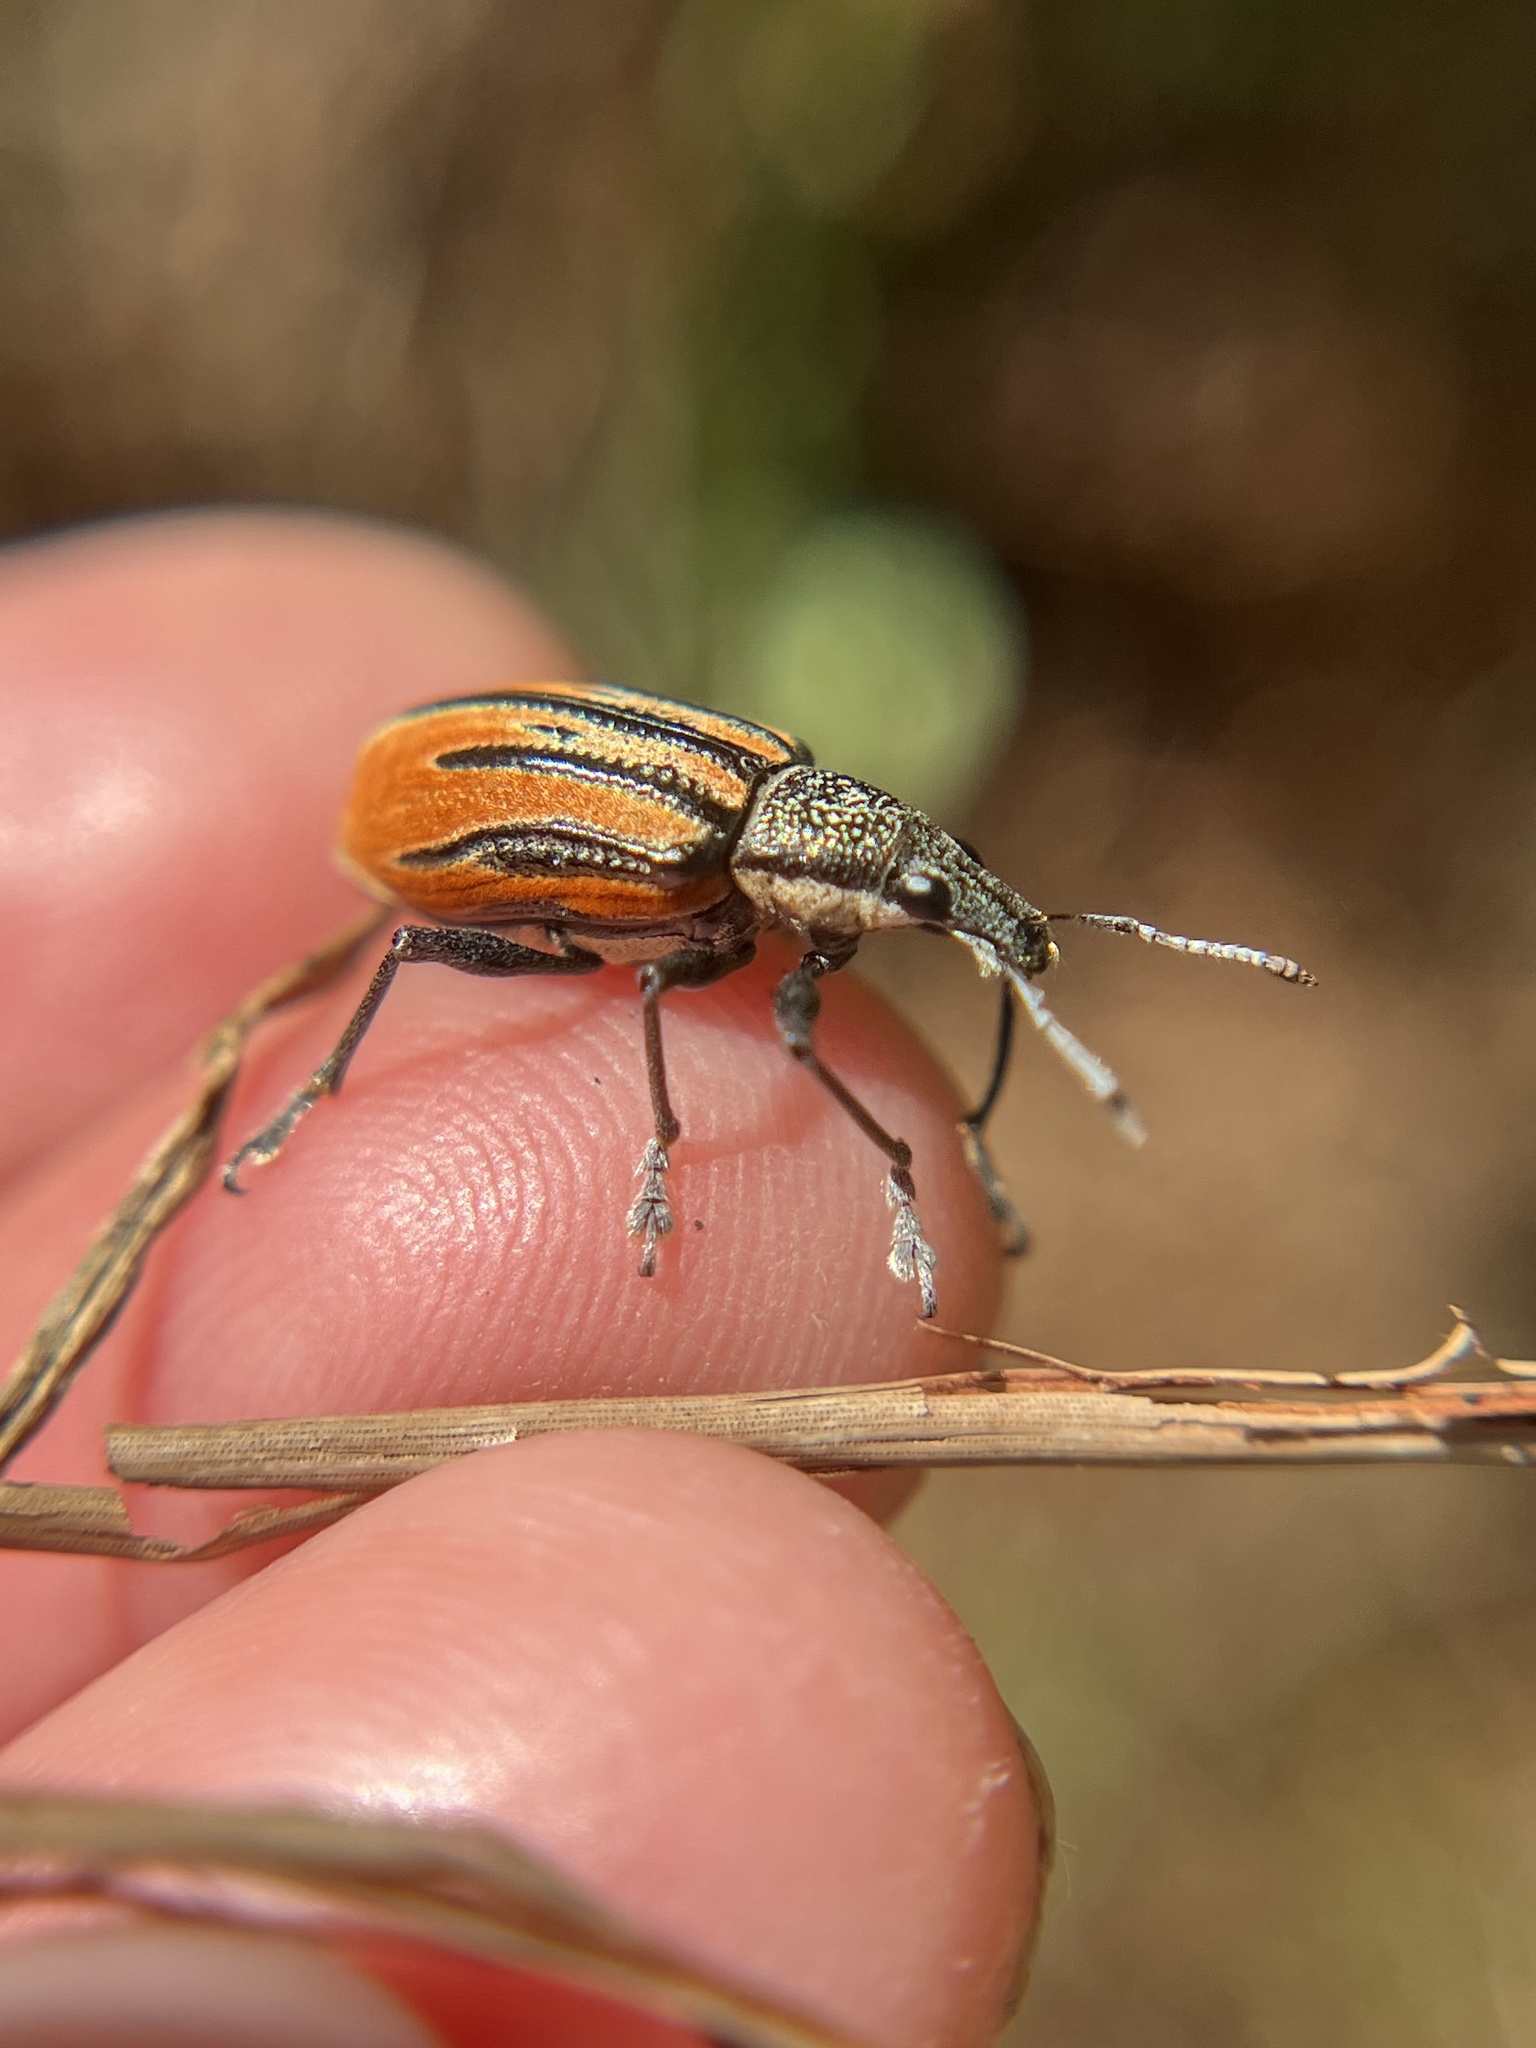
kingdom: Animalia
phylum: Arthropoda
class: Insecta
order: Coleoptera
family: Curculionidae
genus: Diaprepes
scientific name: Diaprepes abbreviatus
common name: Root weevil
